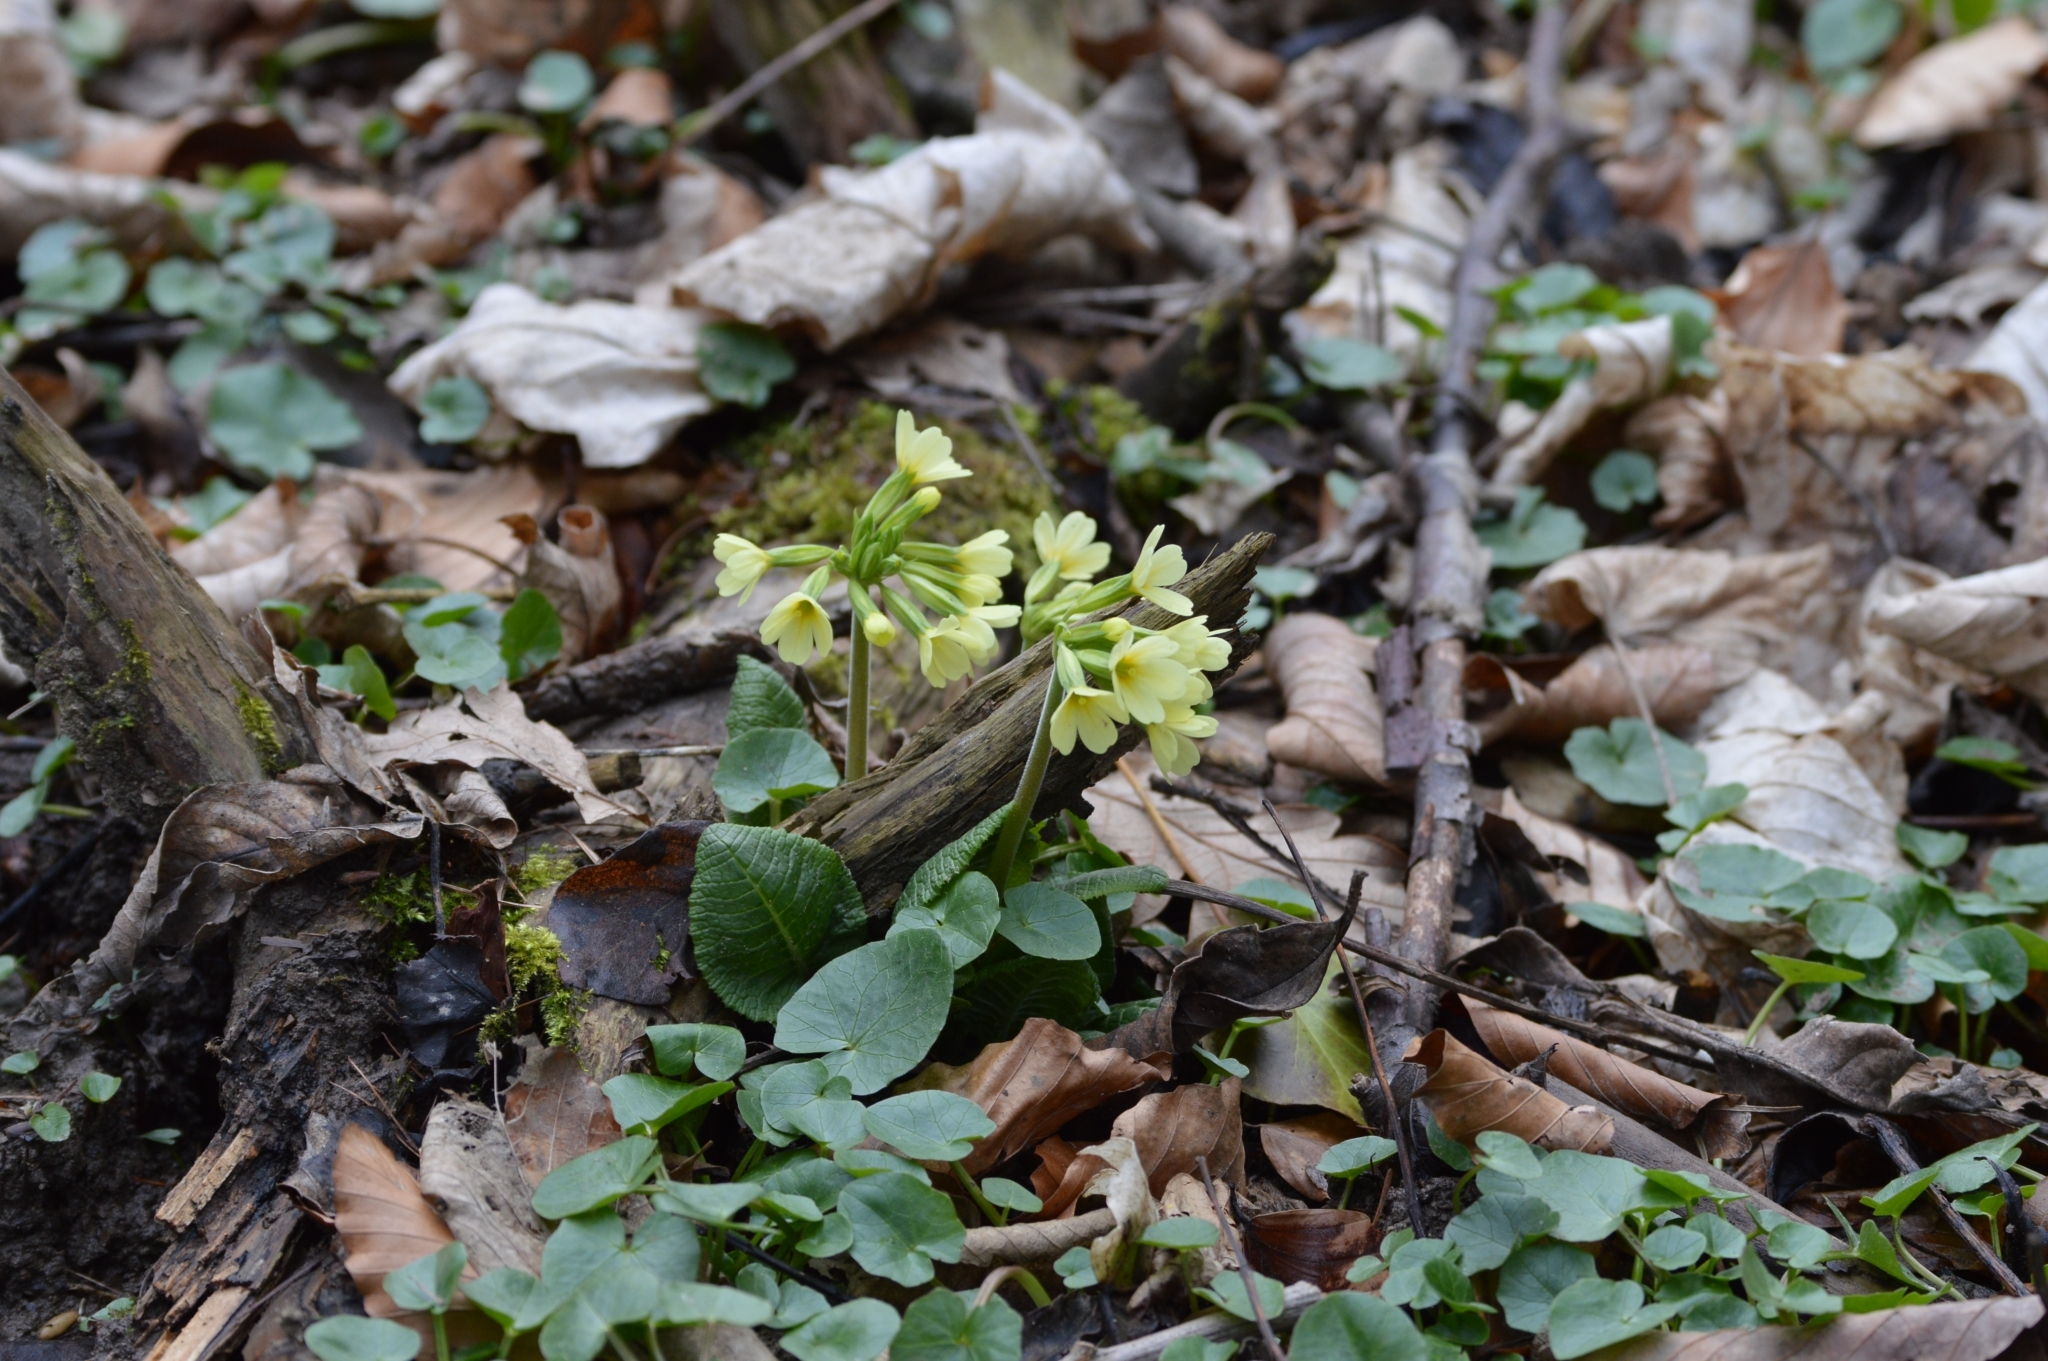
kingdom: Plantae
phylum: Tracheophyta
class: Magnoliopsida
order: Ericales
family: Primulaceae
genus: Primula
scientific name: Primula elatior
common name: Oxlip
